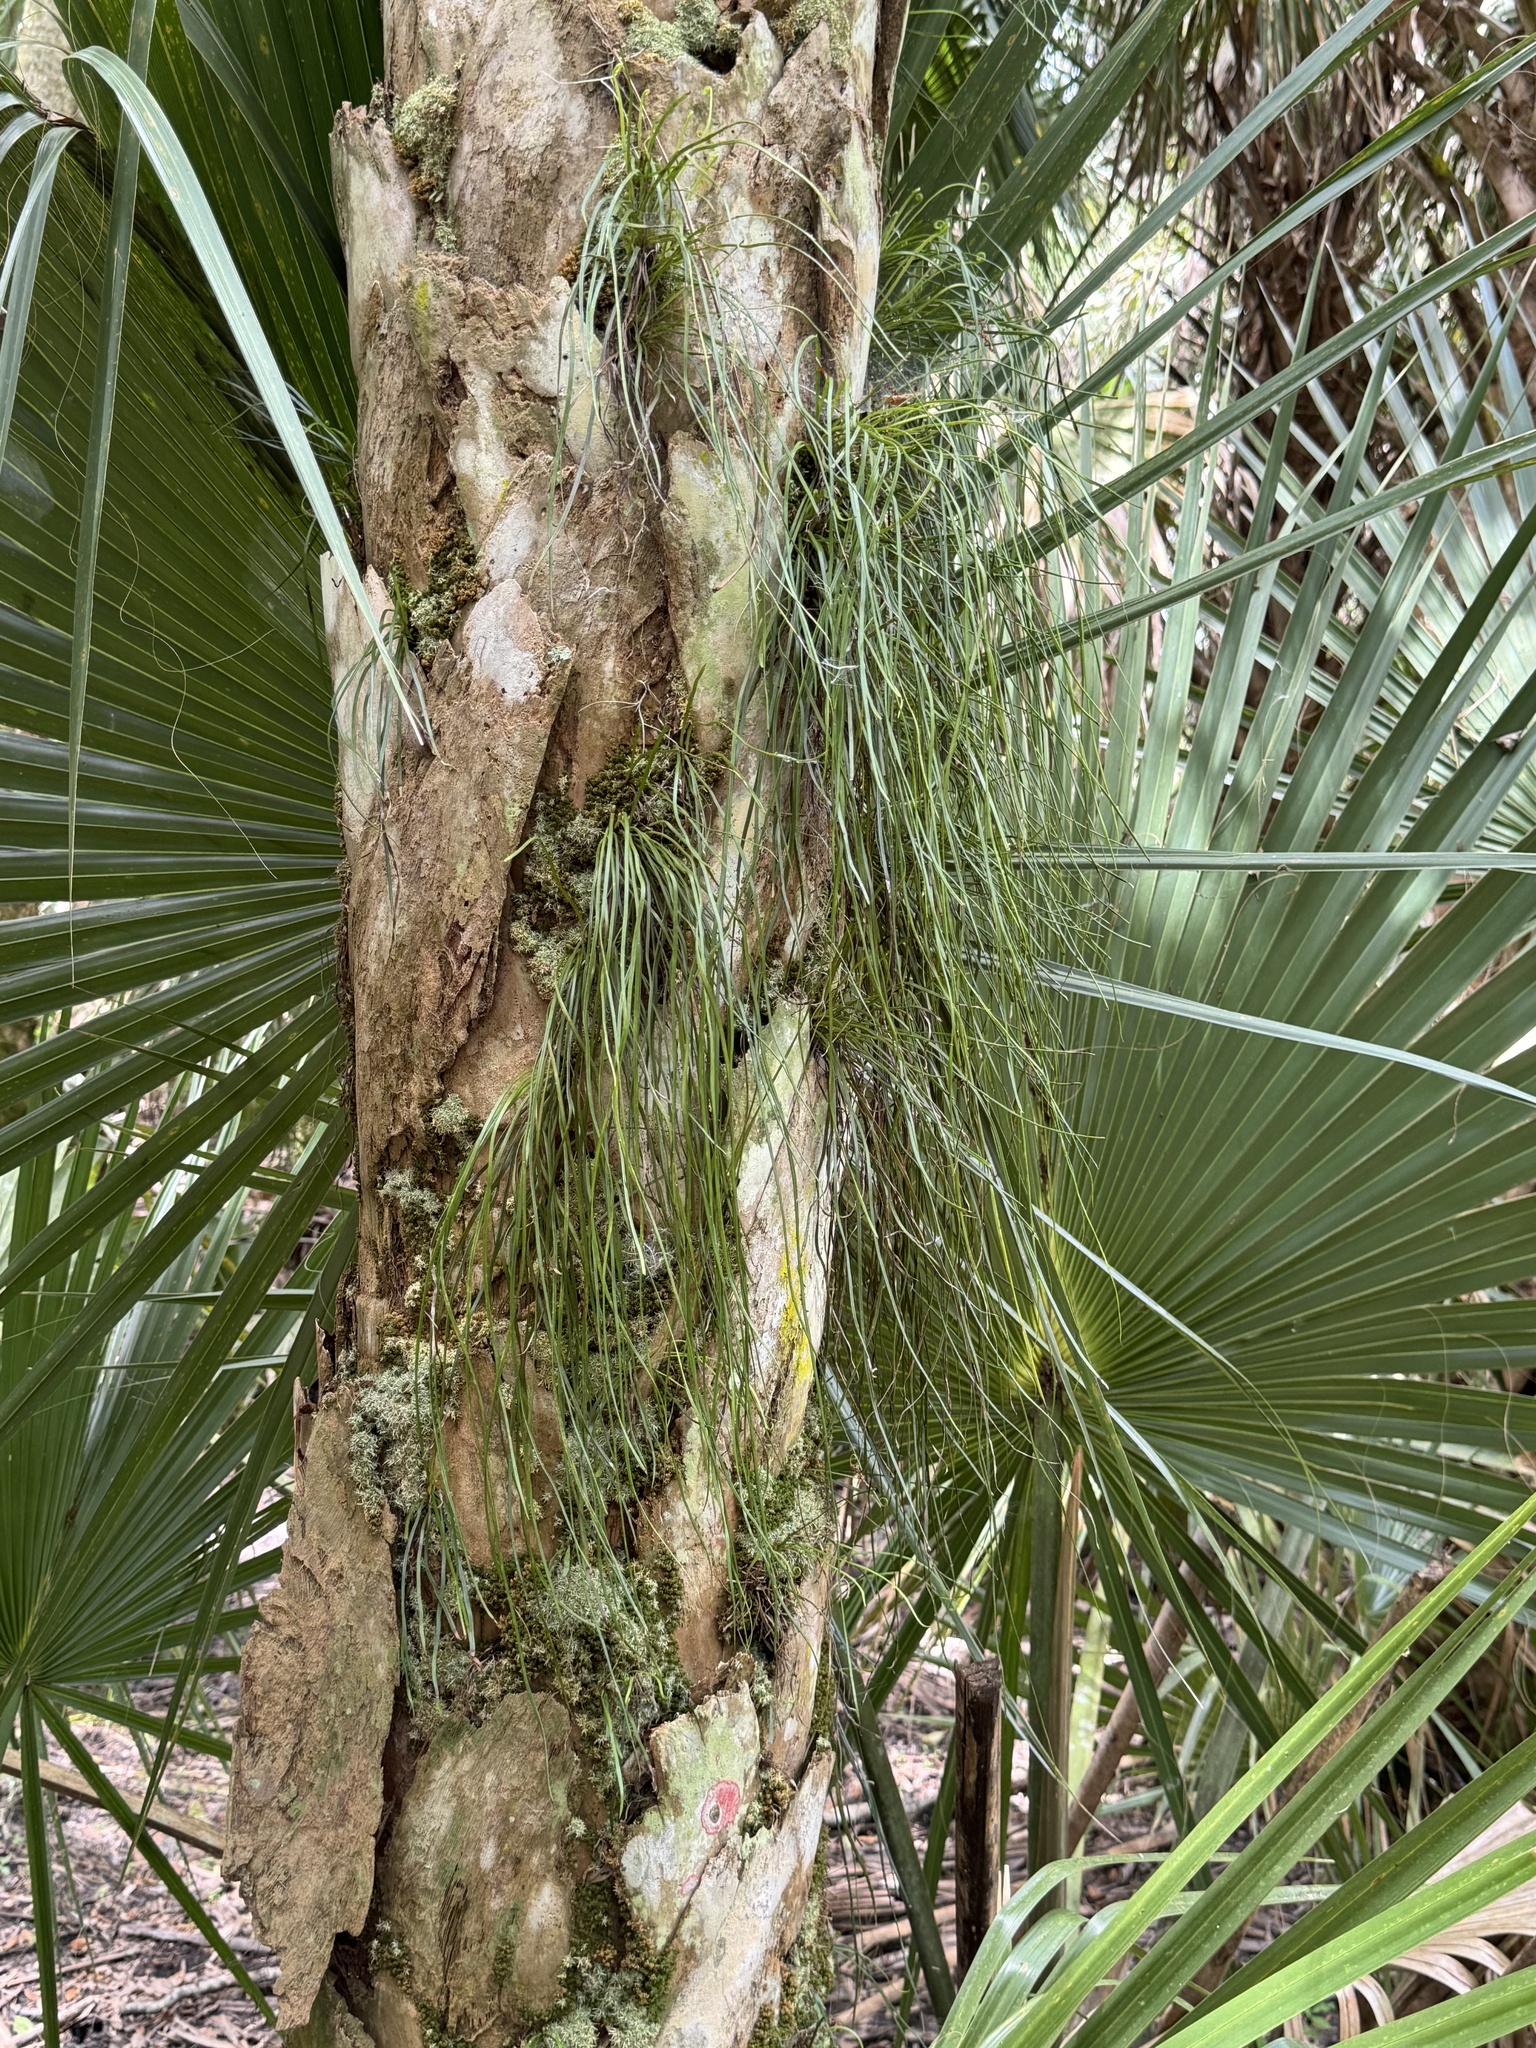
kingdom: Plantae
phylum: Tracheophyta
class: Polypodiopsida
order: Polypodiales
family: Pteridaceae
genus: Vittaria
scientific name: Vittaria lineata
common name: Shoestring fern
